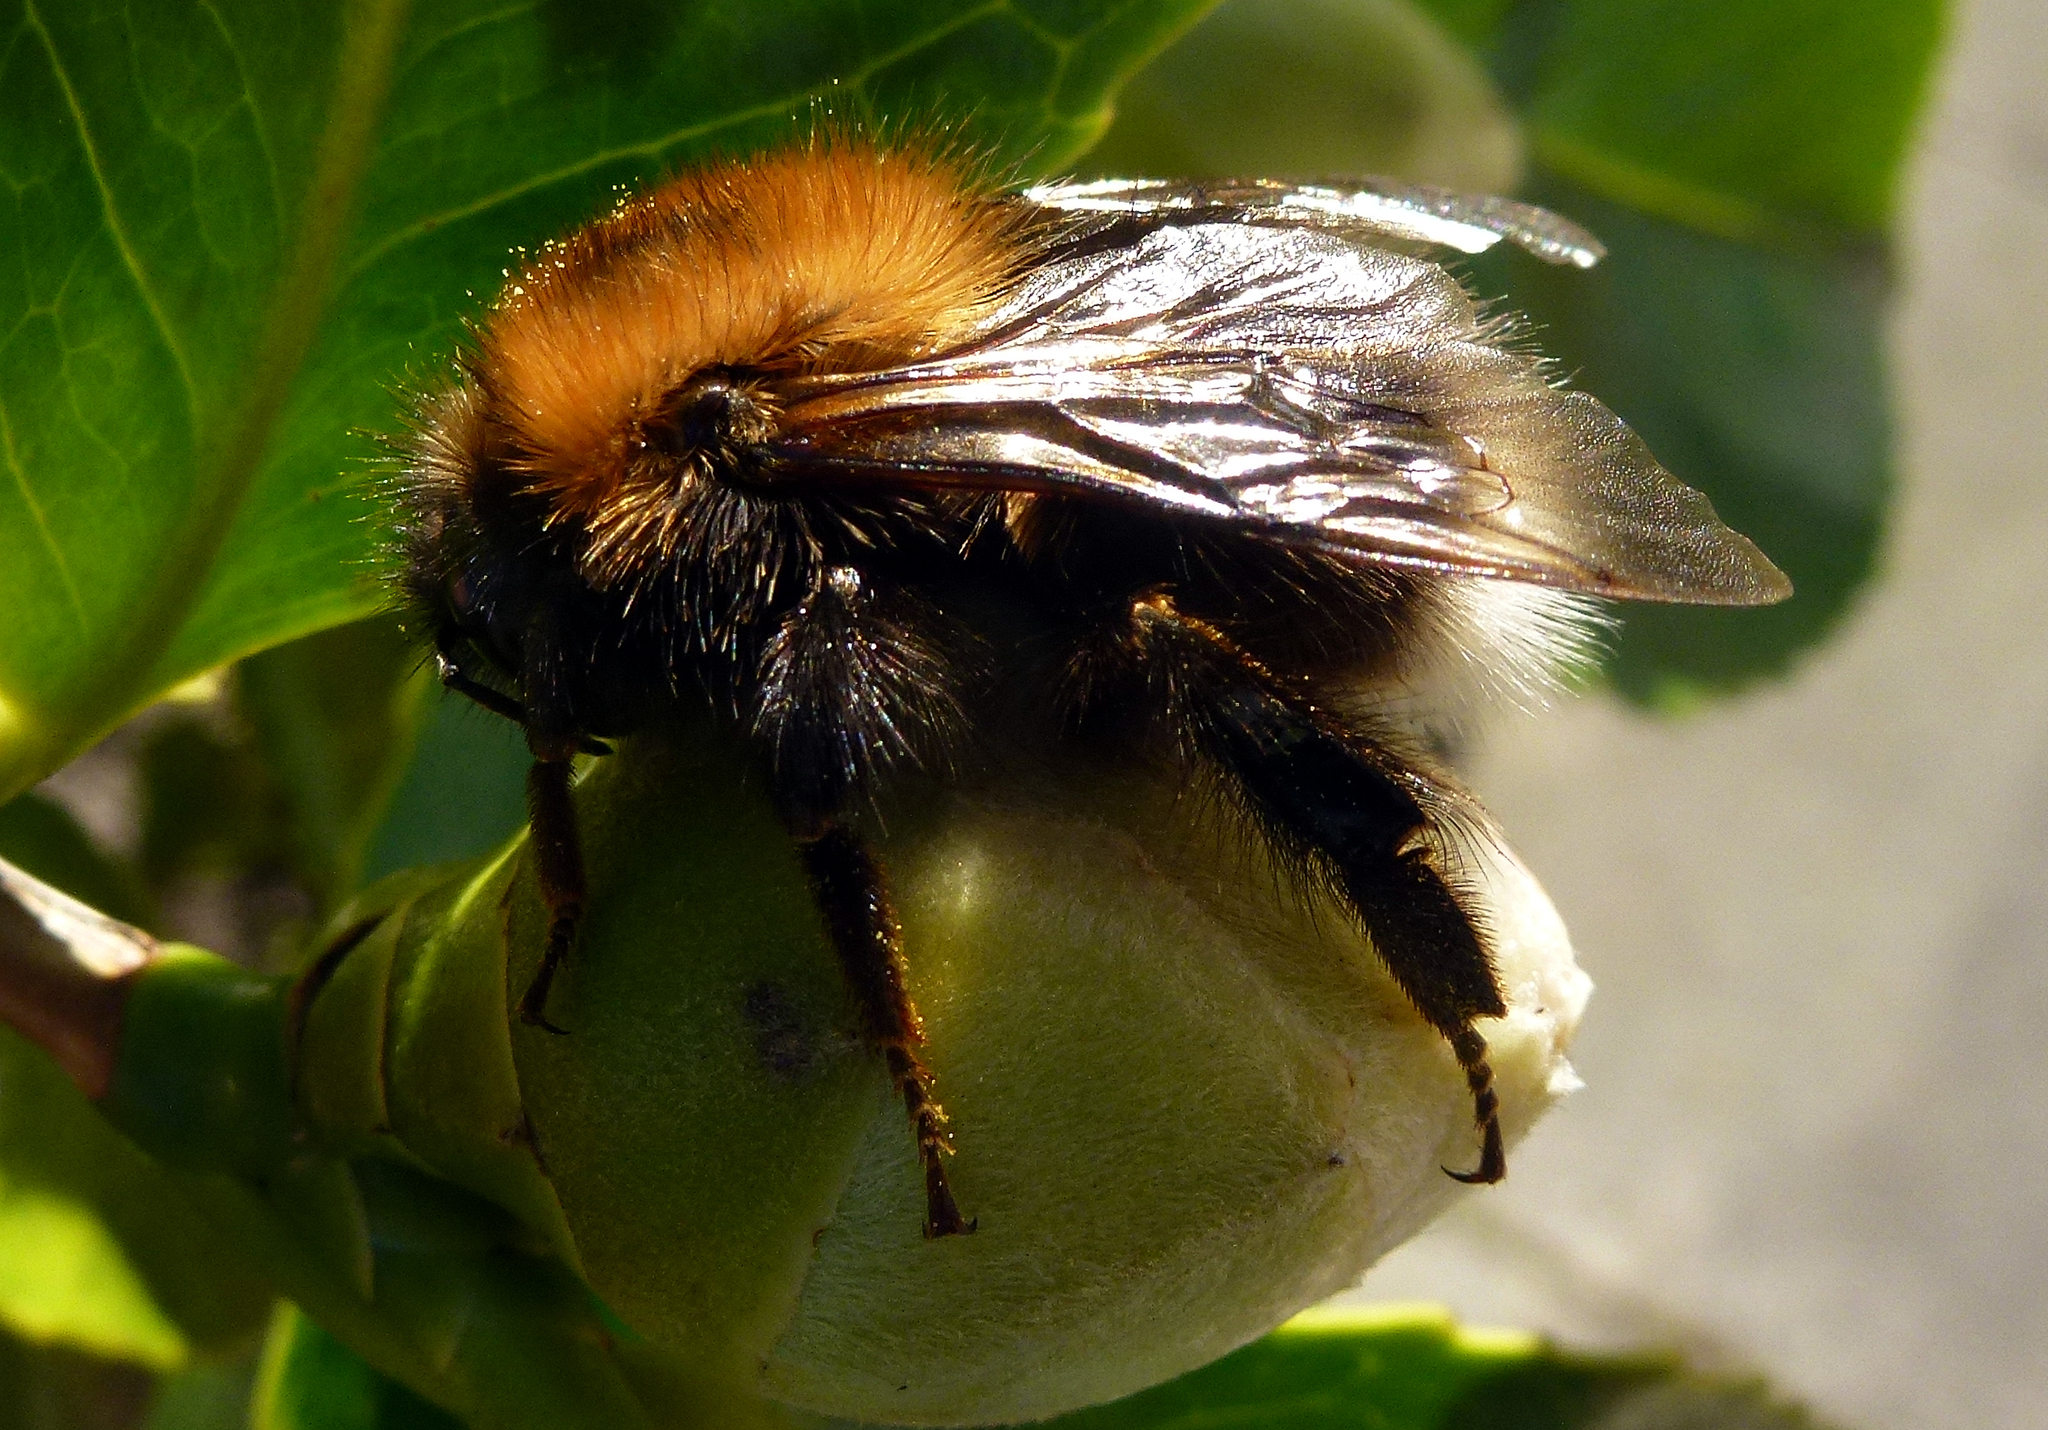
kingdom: Animalia
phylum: Arthropoda
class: Insecta
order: Hymenoptera
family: Apidae
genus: Bombus
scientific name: Bombus hypnorum
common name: New garden bumblebee
